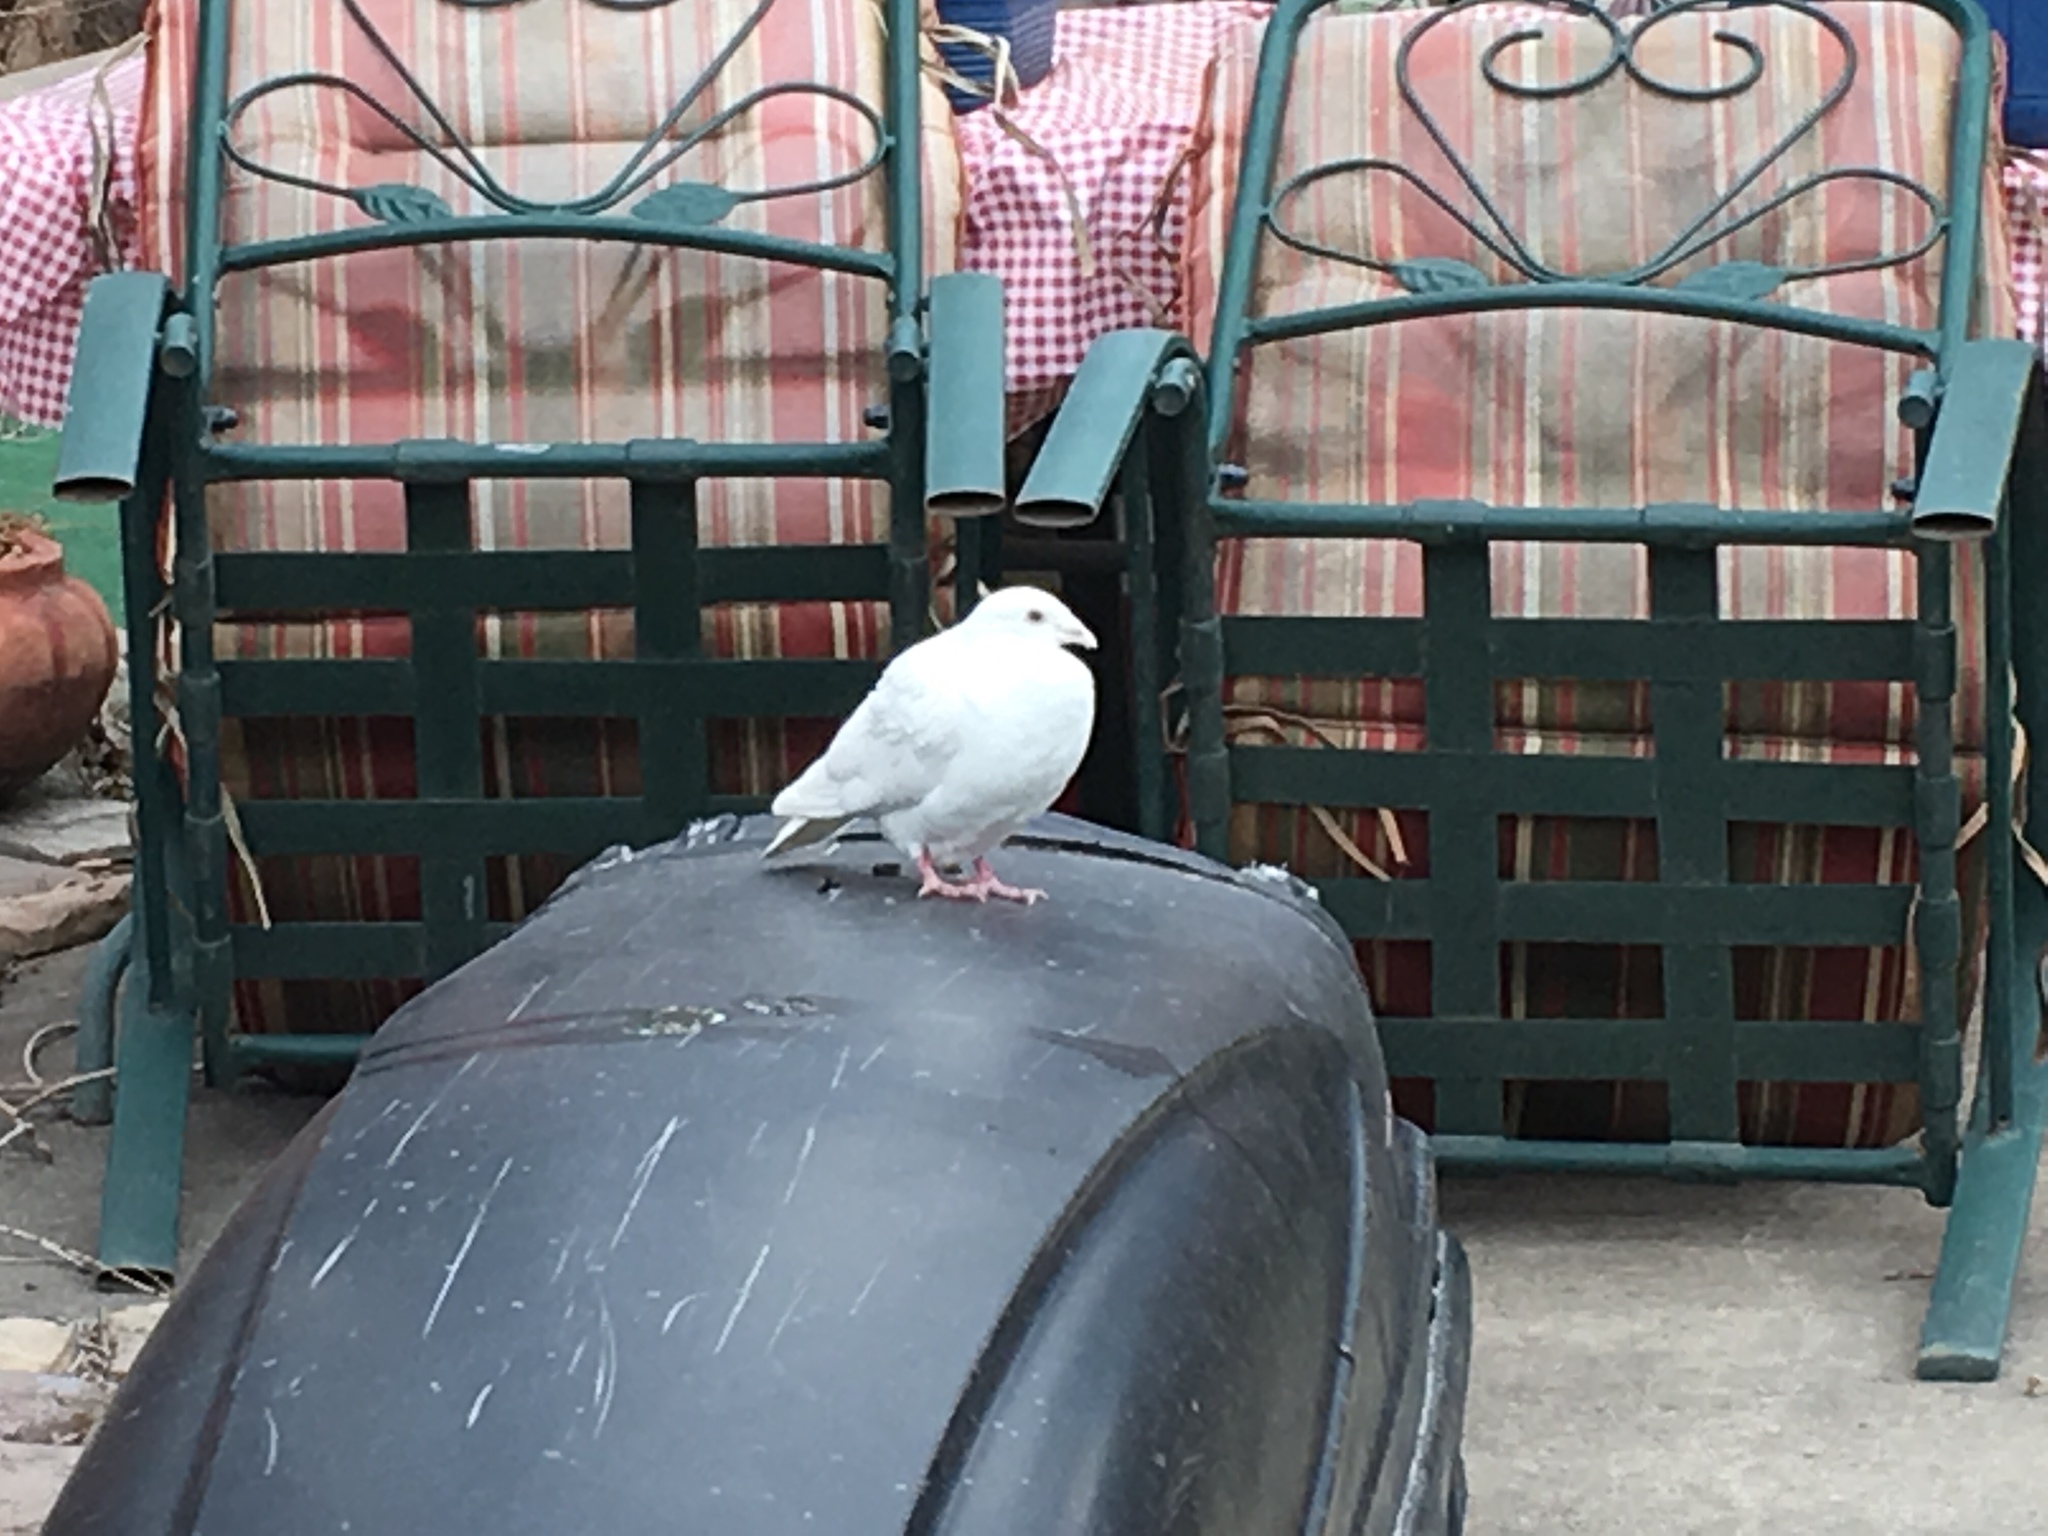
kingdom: Animalia
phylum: Chordata
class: Aves
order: Columbiformes
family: Columbidae
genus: Columba
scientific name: Columba livia
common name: Rock pigeon
